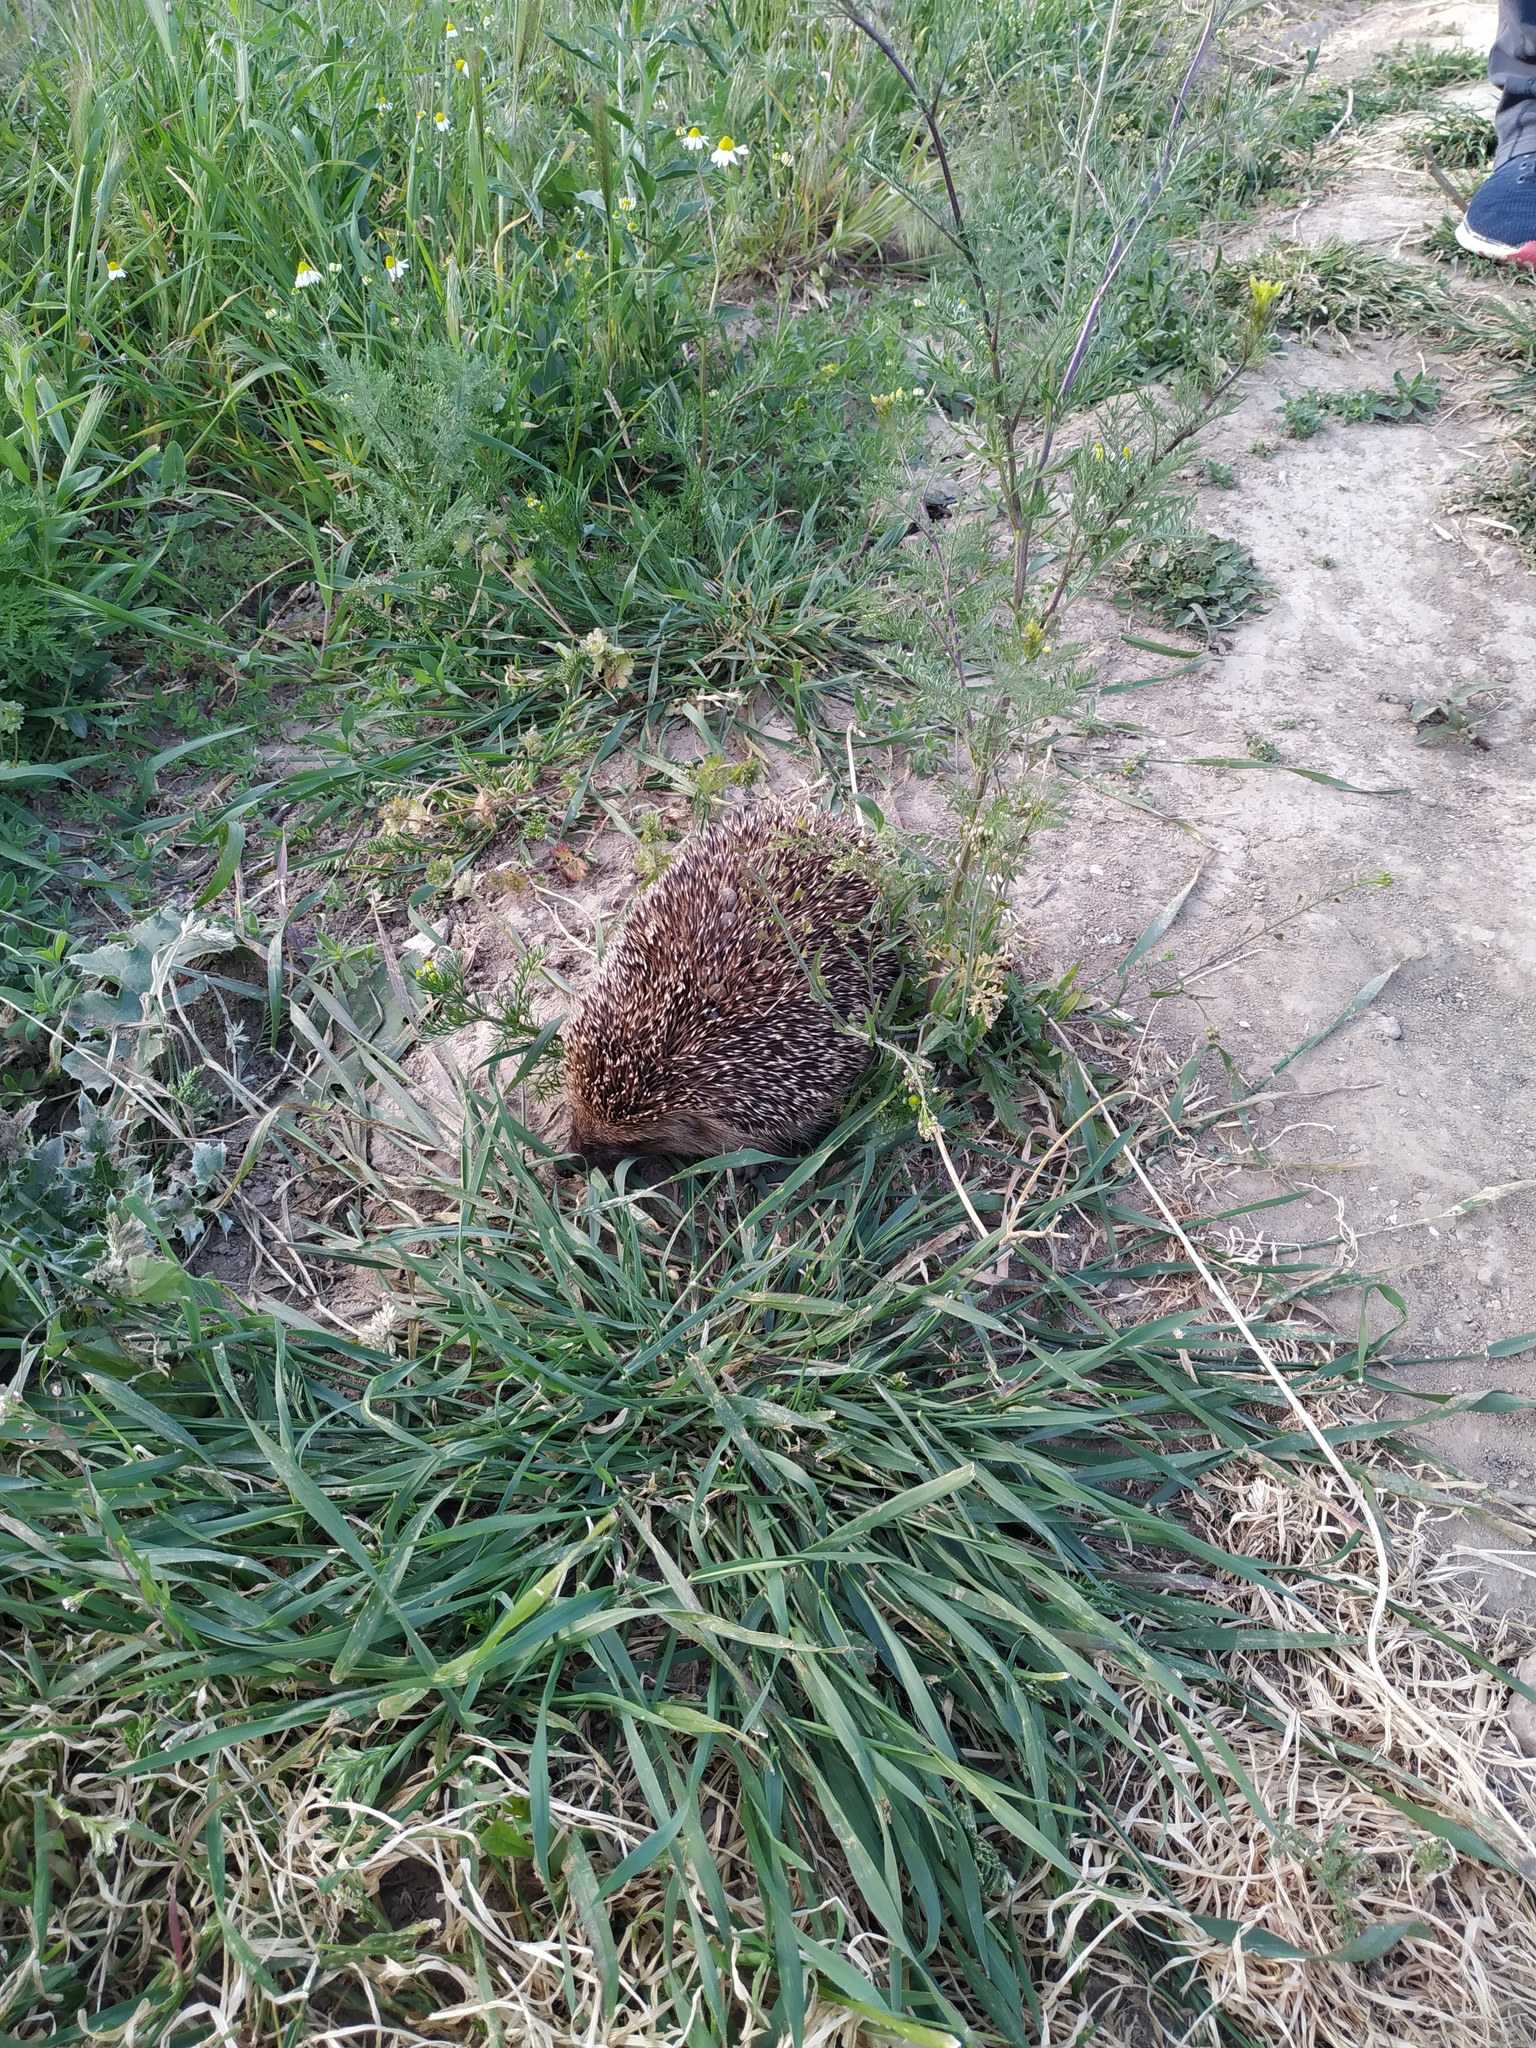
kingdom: Animalia
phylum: Chordata
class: Mammalia
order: Erinaceomorpha
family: Erinaceidae
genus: Erinaceus
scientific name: Erinaceus roumanicus
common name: Northern white-breasted hedgehog
